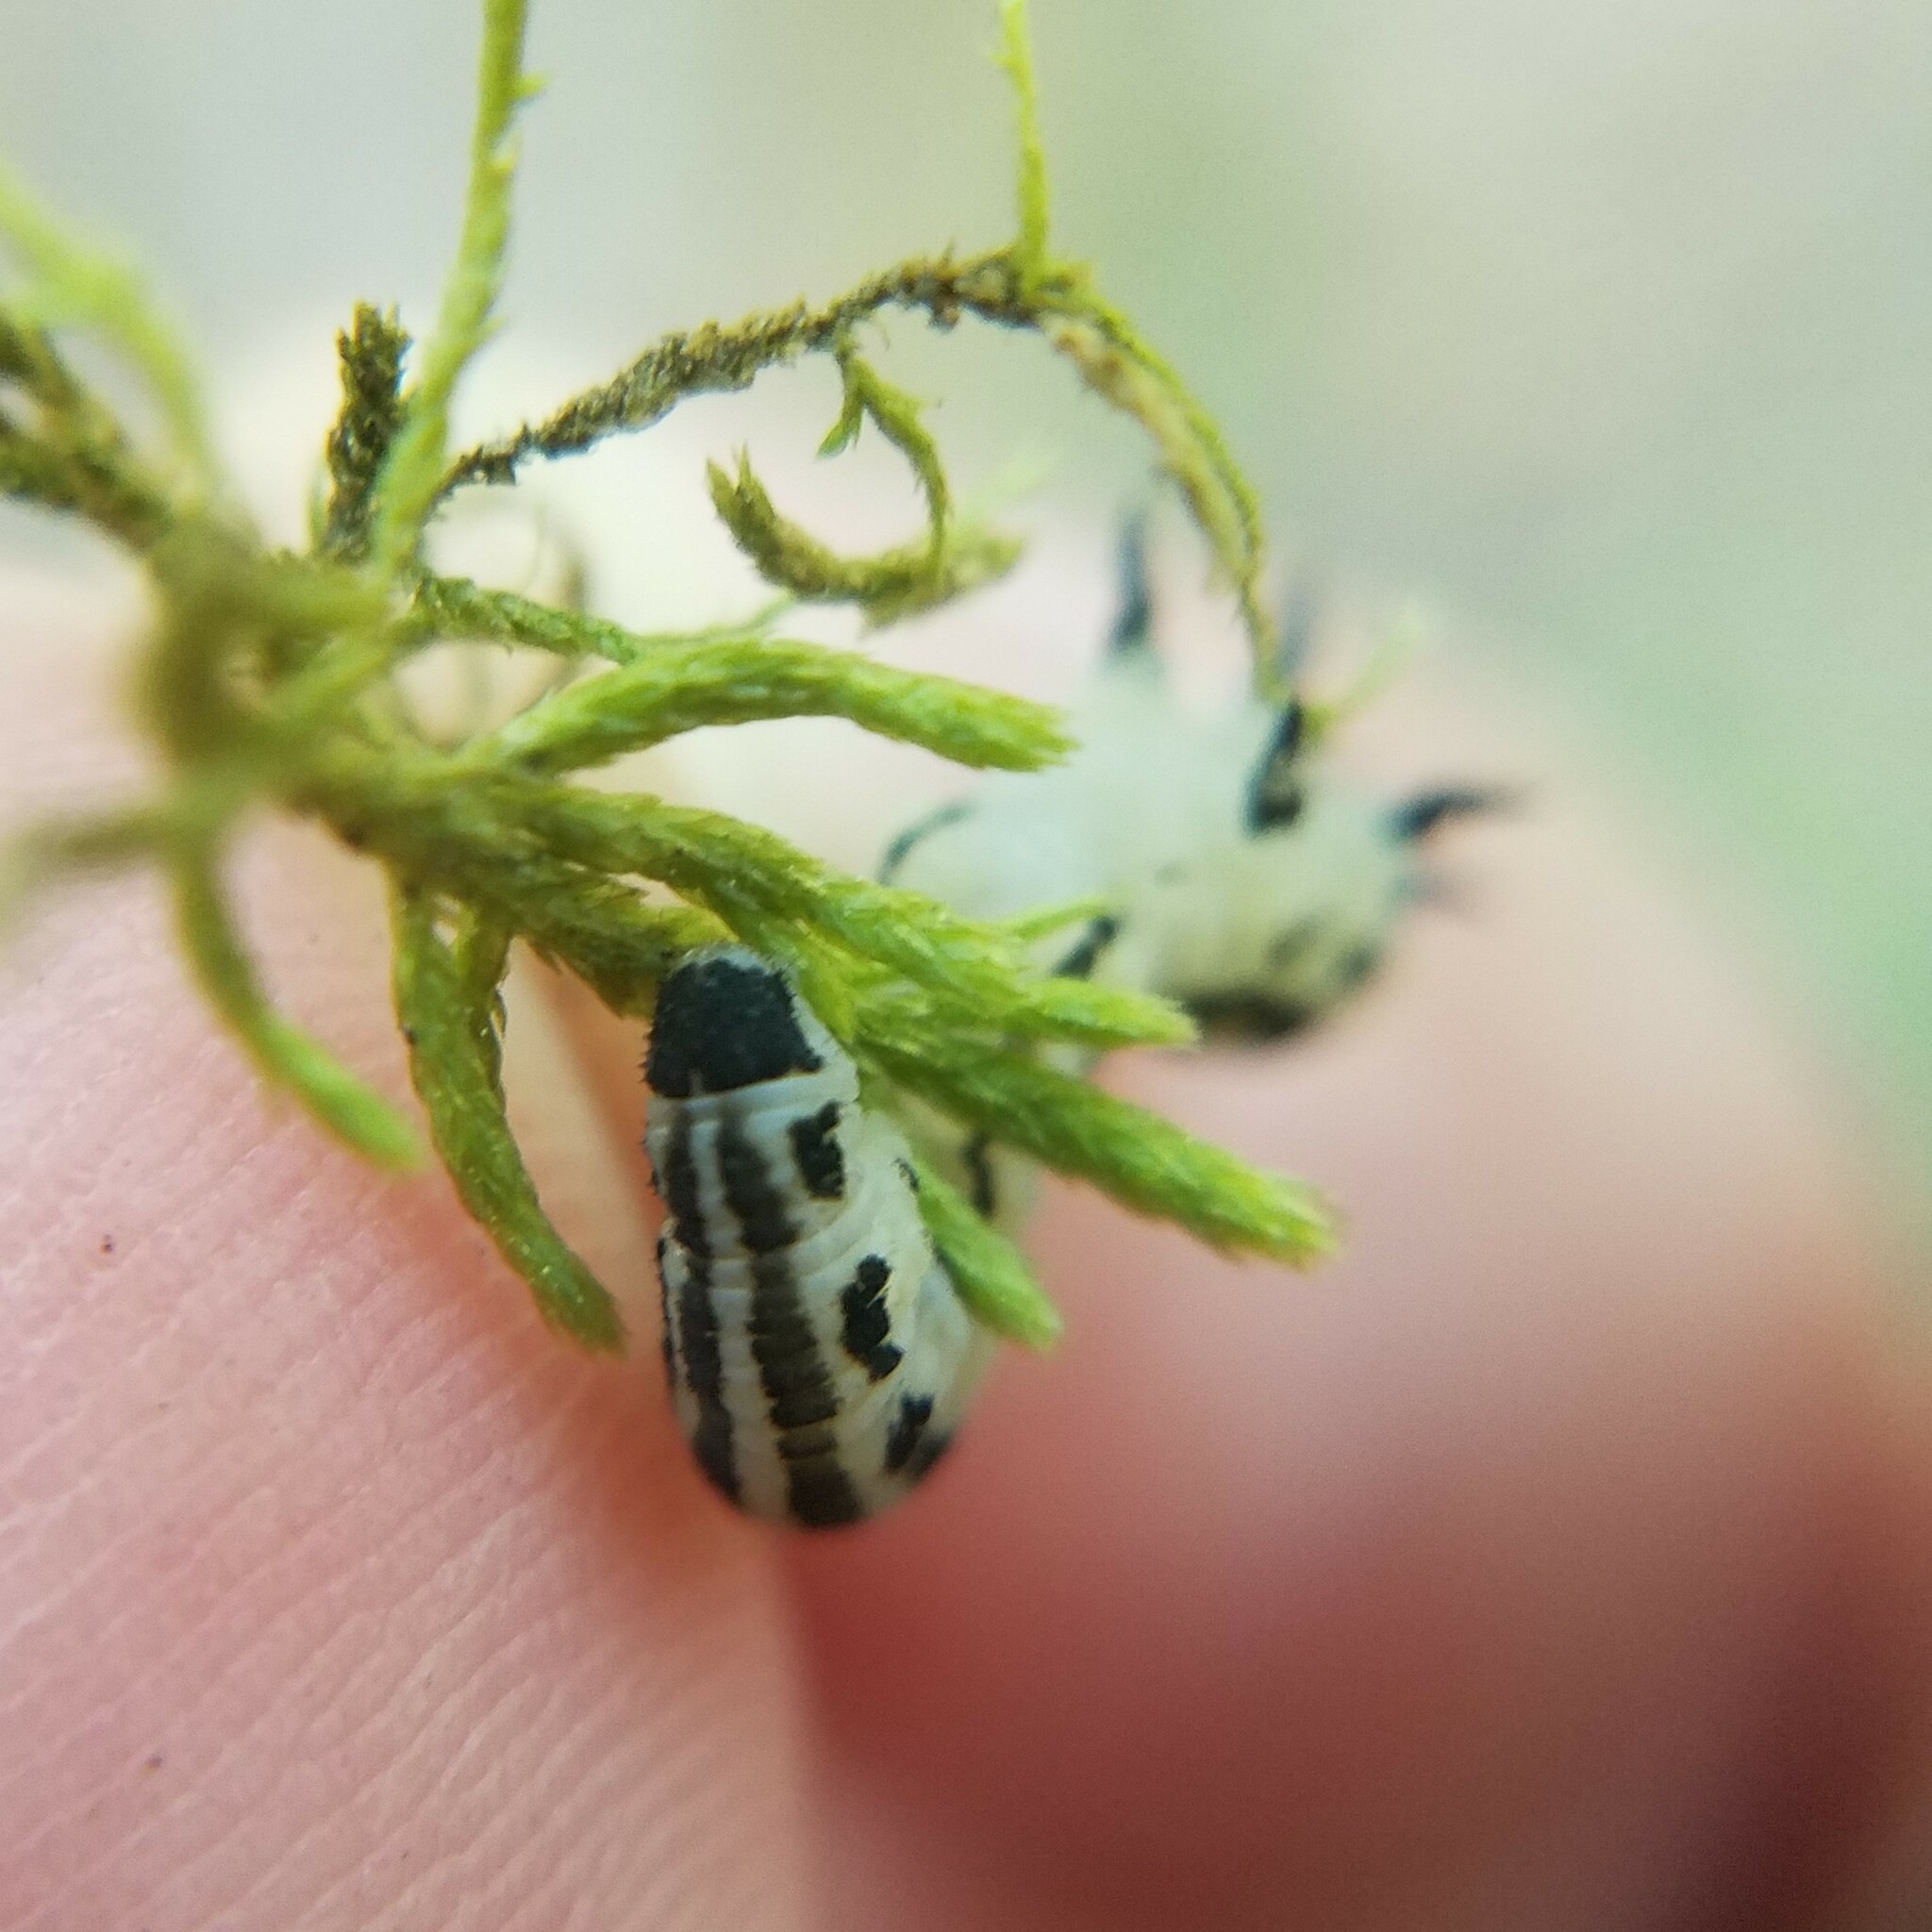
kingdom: Animalia
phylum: Arthropoda
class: Insecta
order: Hymenoptera
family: Diprionidae
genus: Neodiprion
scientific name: Neodiprion
